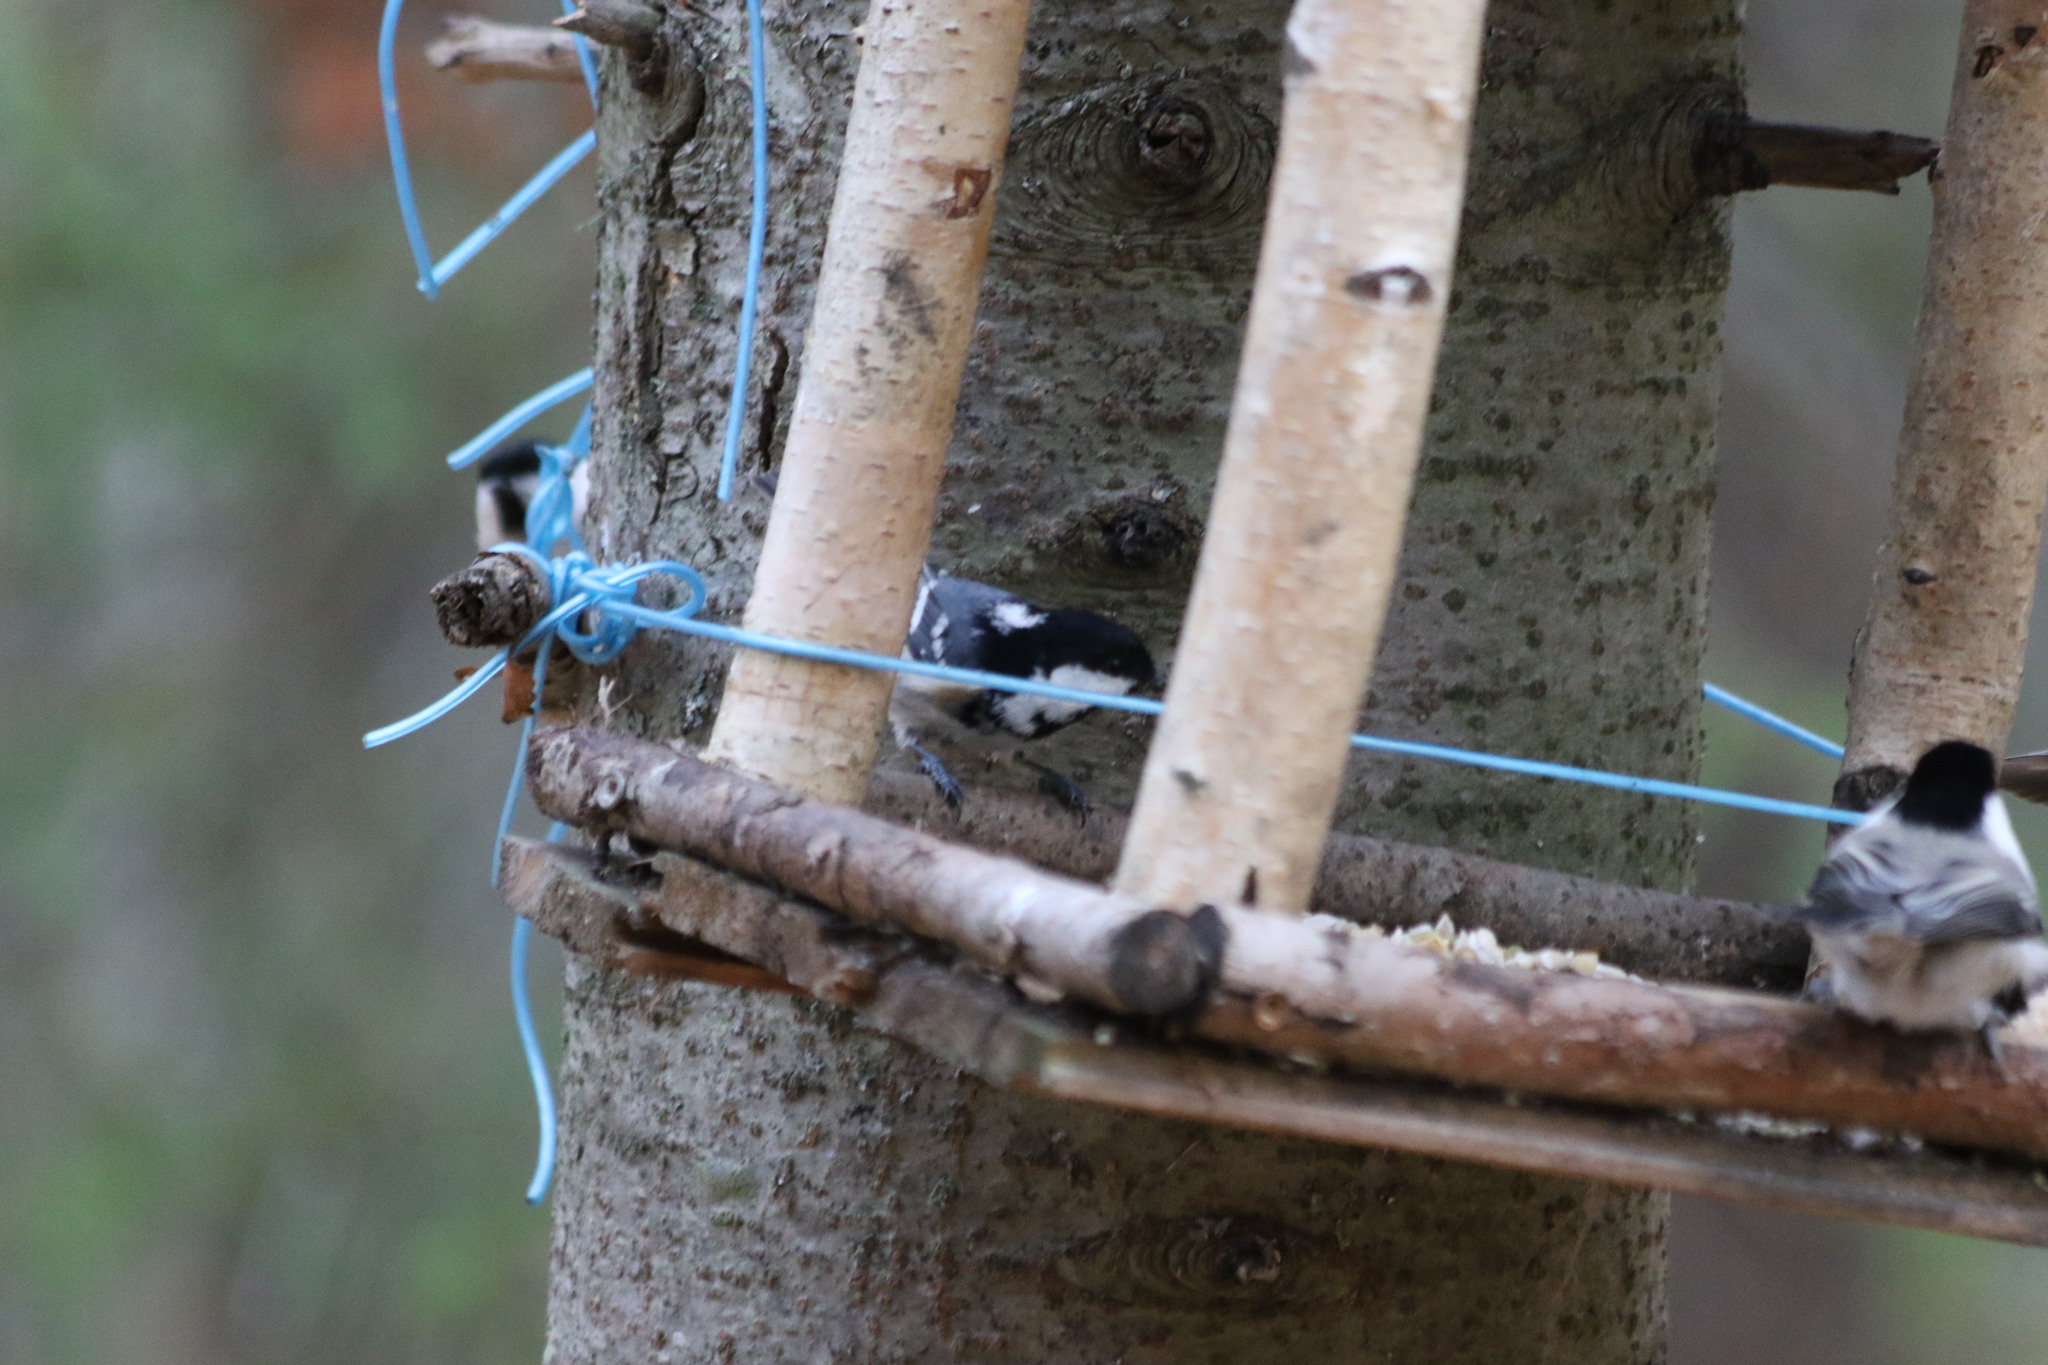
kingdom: Animalia
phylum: Chordata
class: Aves
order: Passeriformes
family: Paridae
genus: Periparus
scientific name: Periparus ater
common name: Coal tit
